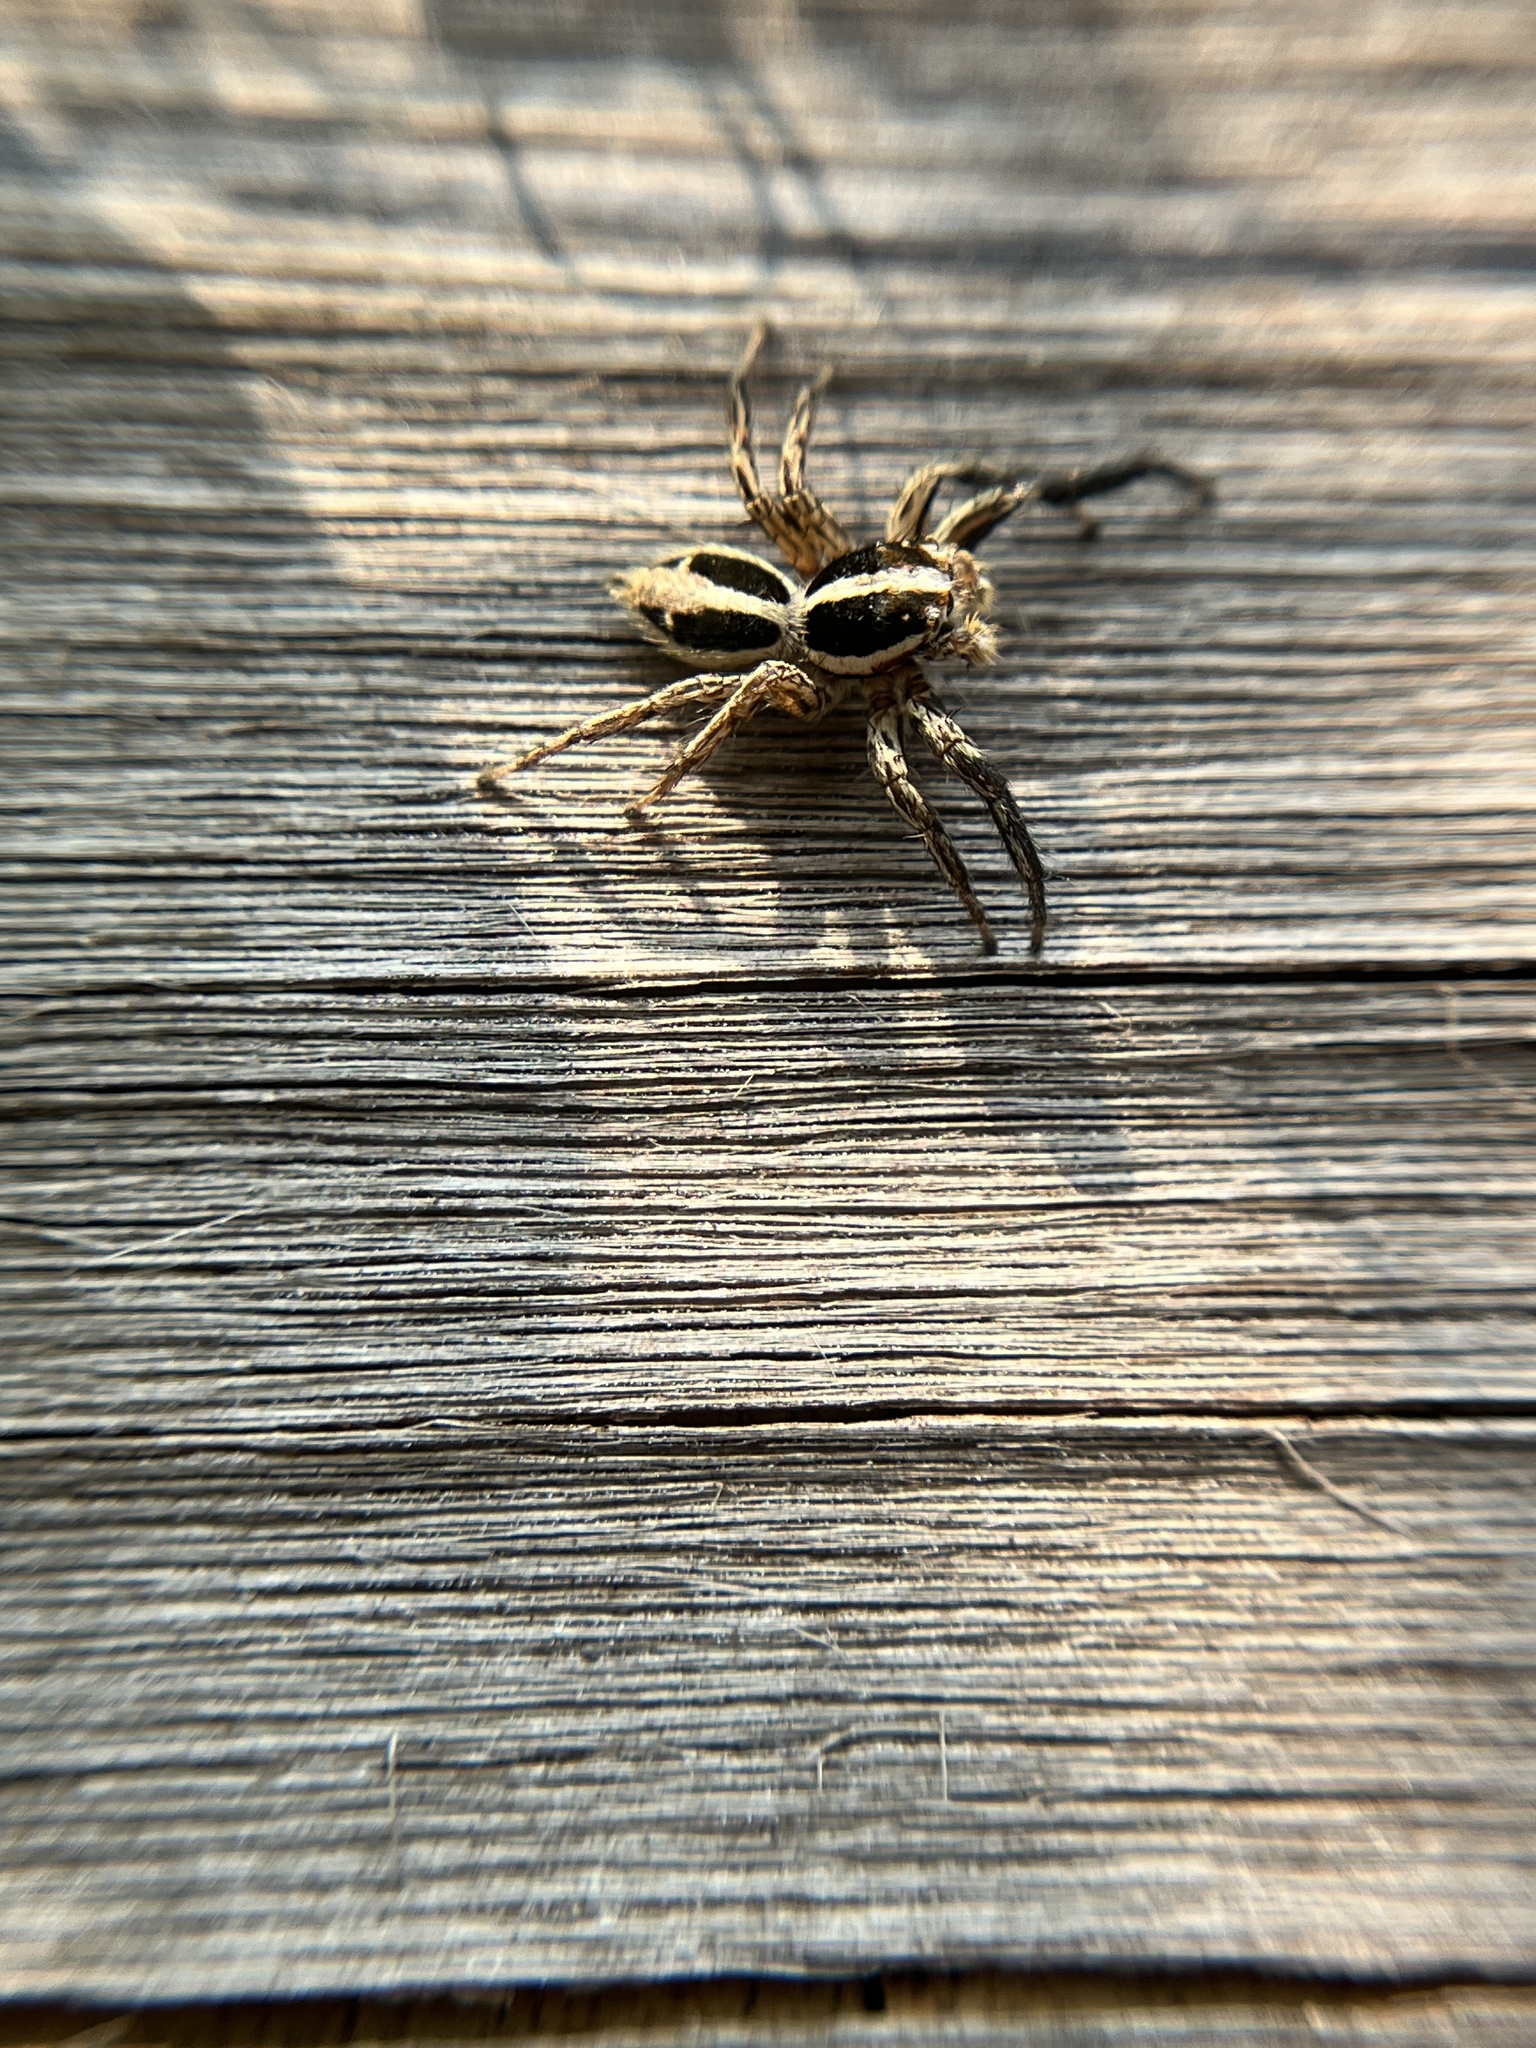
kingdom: Animalia
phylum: Arthropoda
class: Arachnida
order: Araneae
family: Salticidae
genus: Plexippus
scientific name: Plexippus paykulli
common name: Pantropical jumper
